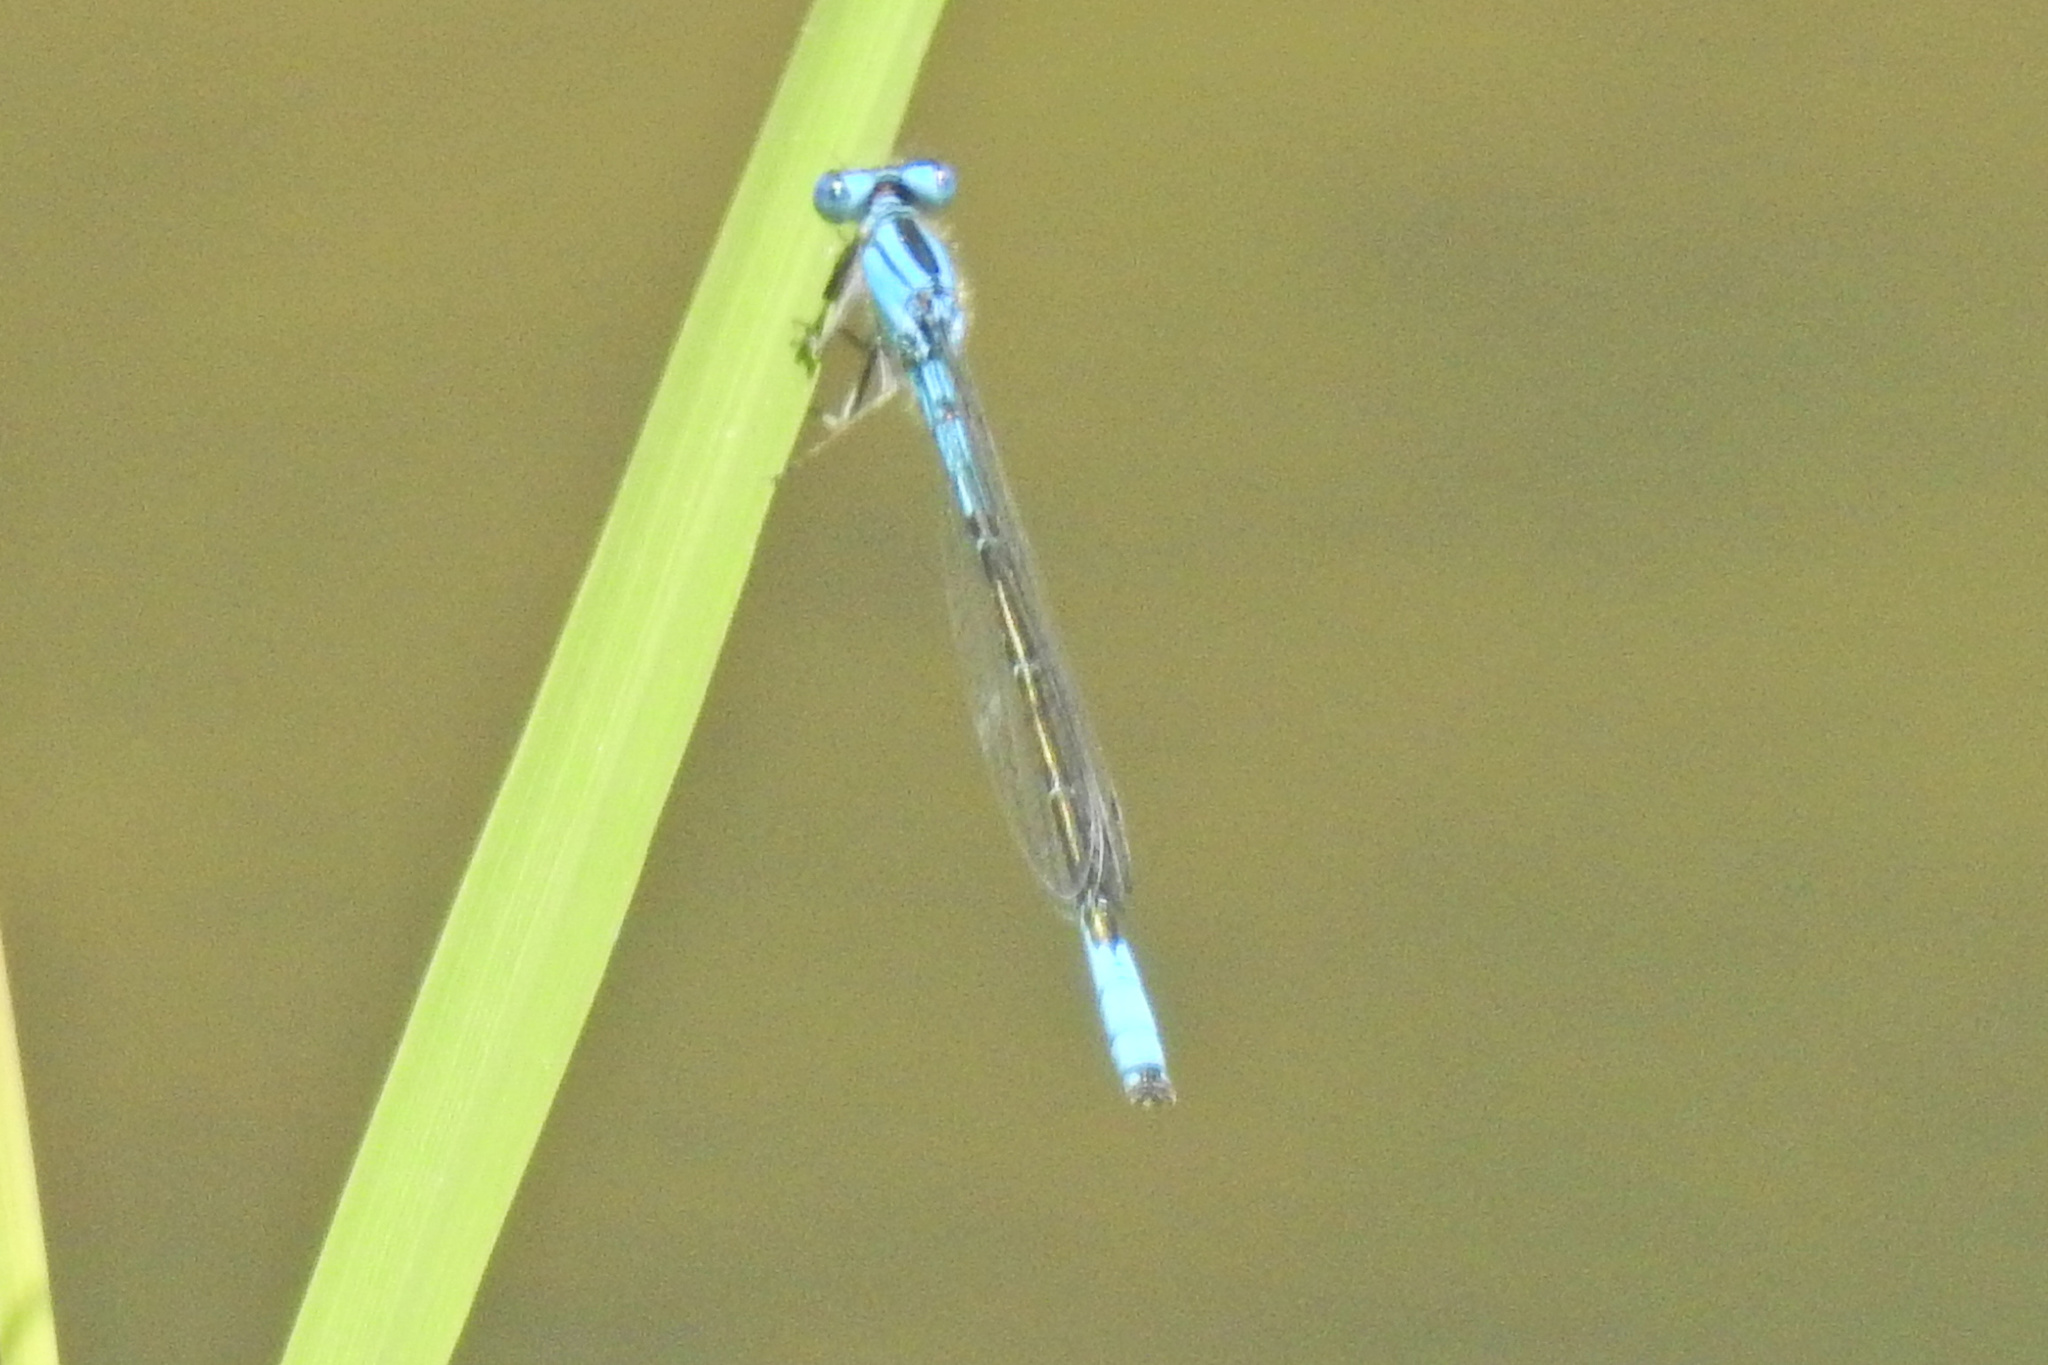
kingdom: Animalia
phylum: Arthropoda
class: Insecta
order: Odonata
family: Coenagrionidae
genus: Enallagma
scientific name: Enallagma aspersum
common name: Azure bluet
